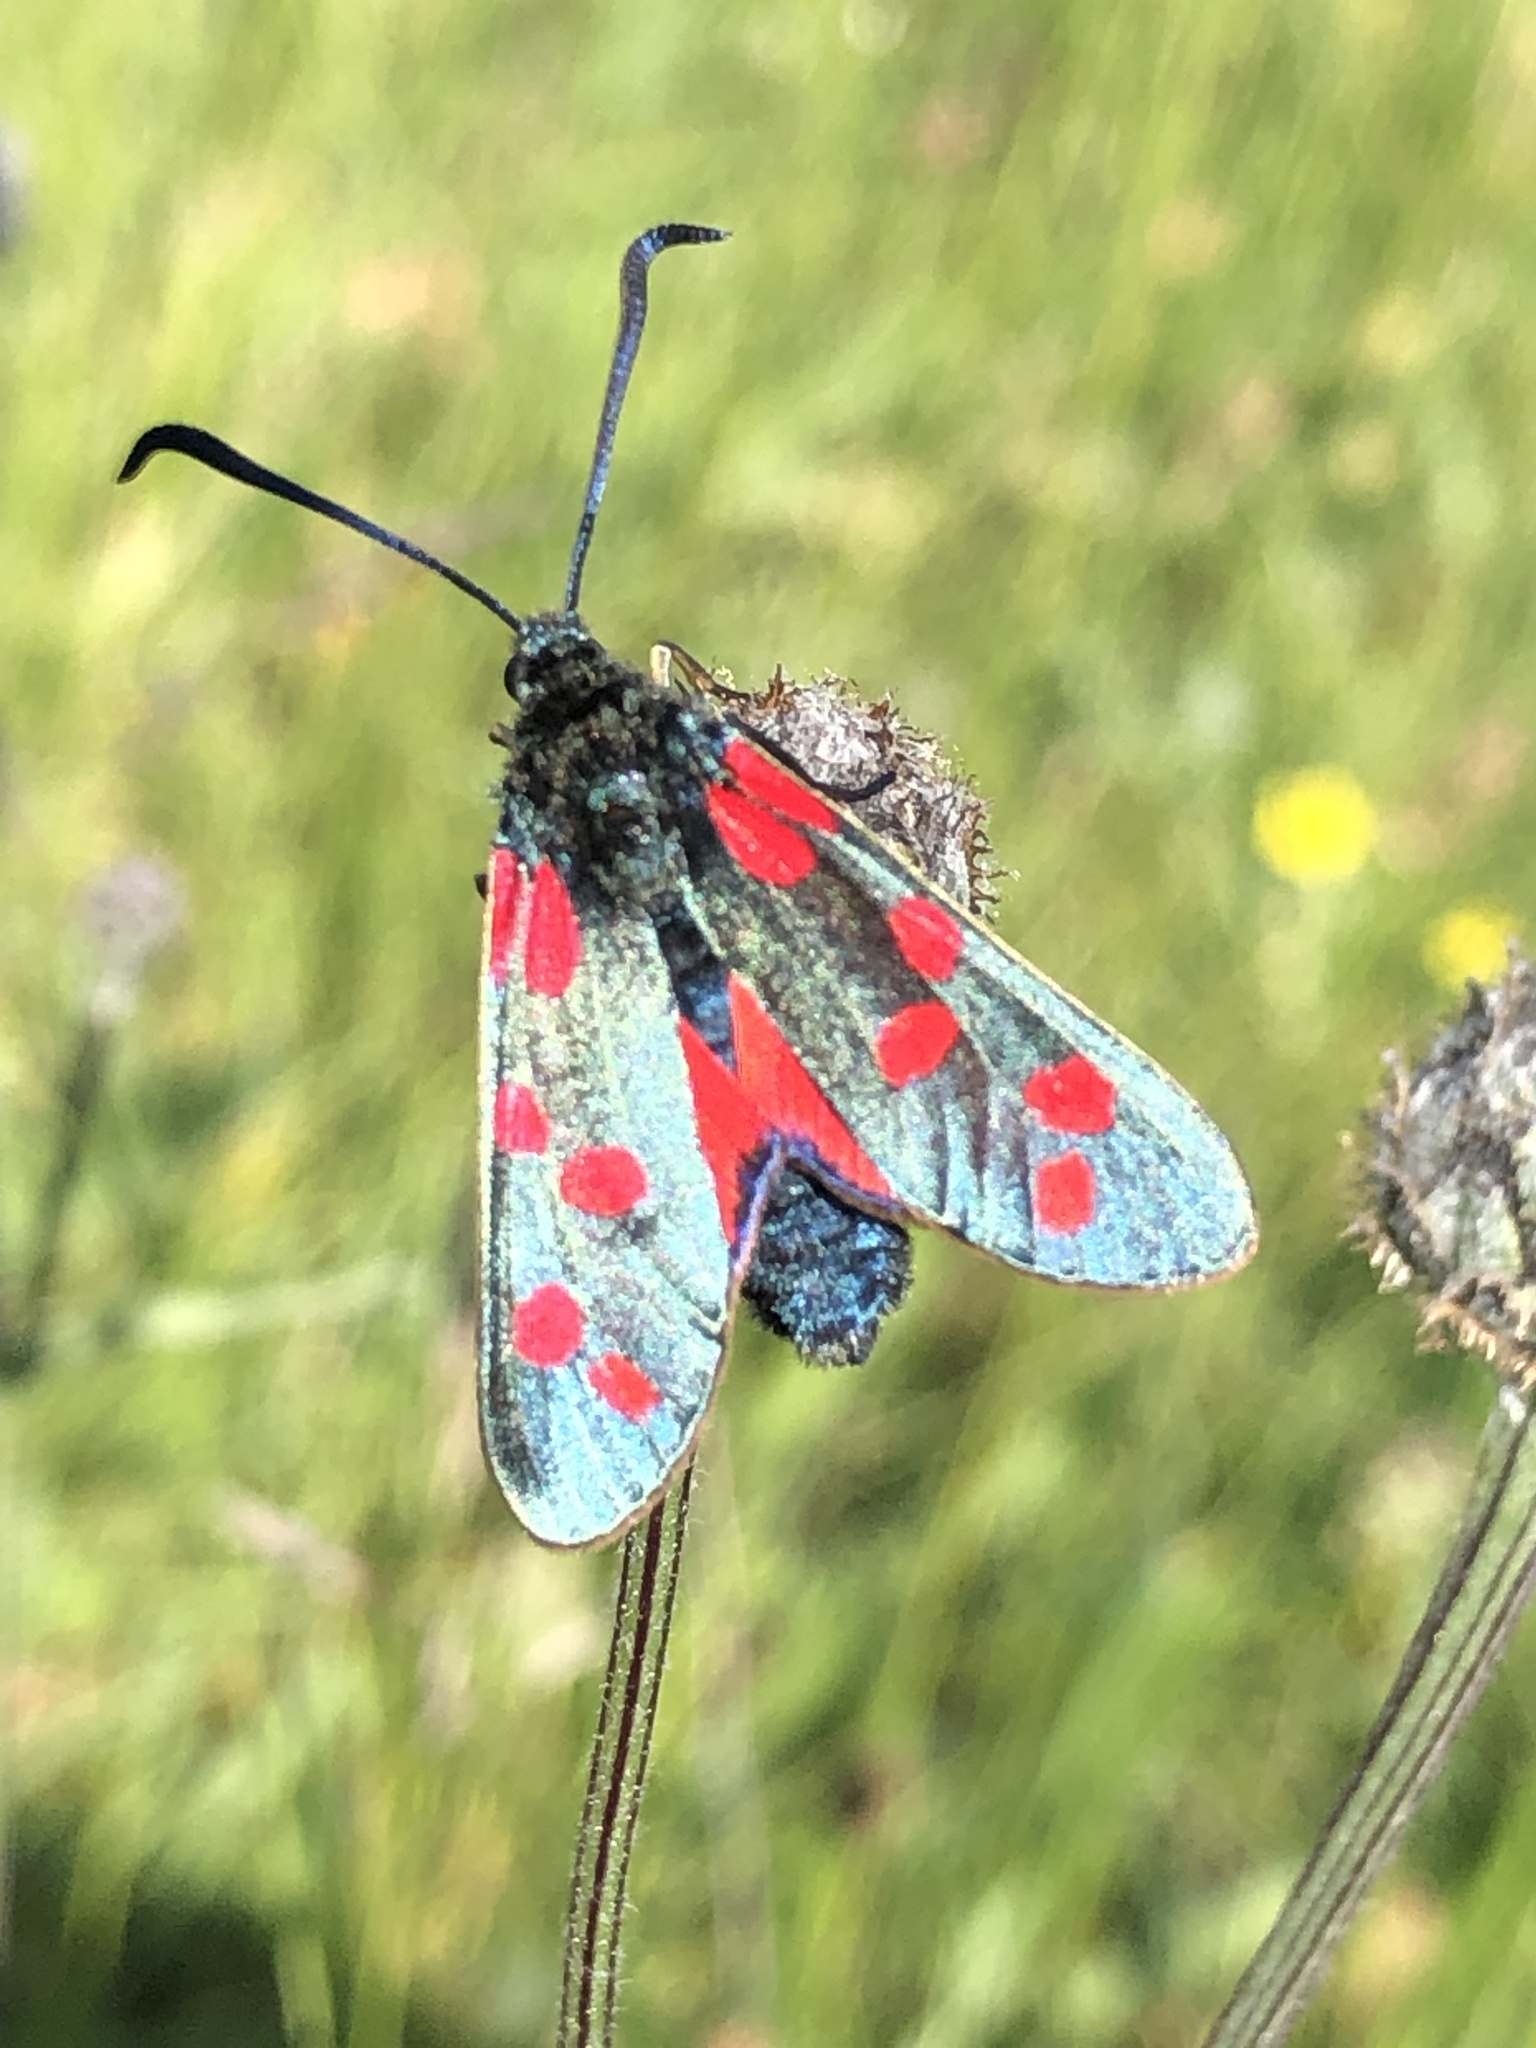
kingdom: Animalia
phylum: Arthropoda
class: Insecta
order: Lepidoptera
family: Zygaenidae
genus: Zygaena
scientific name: Zygaena filipendulae
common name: Six-spot burnet
